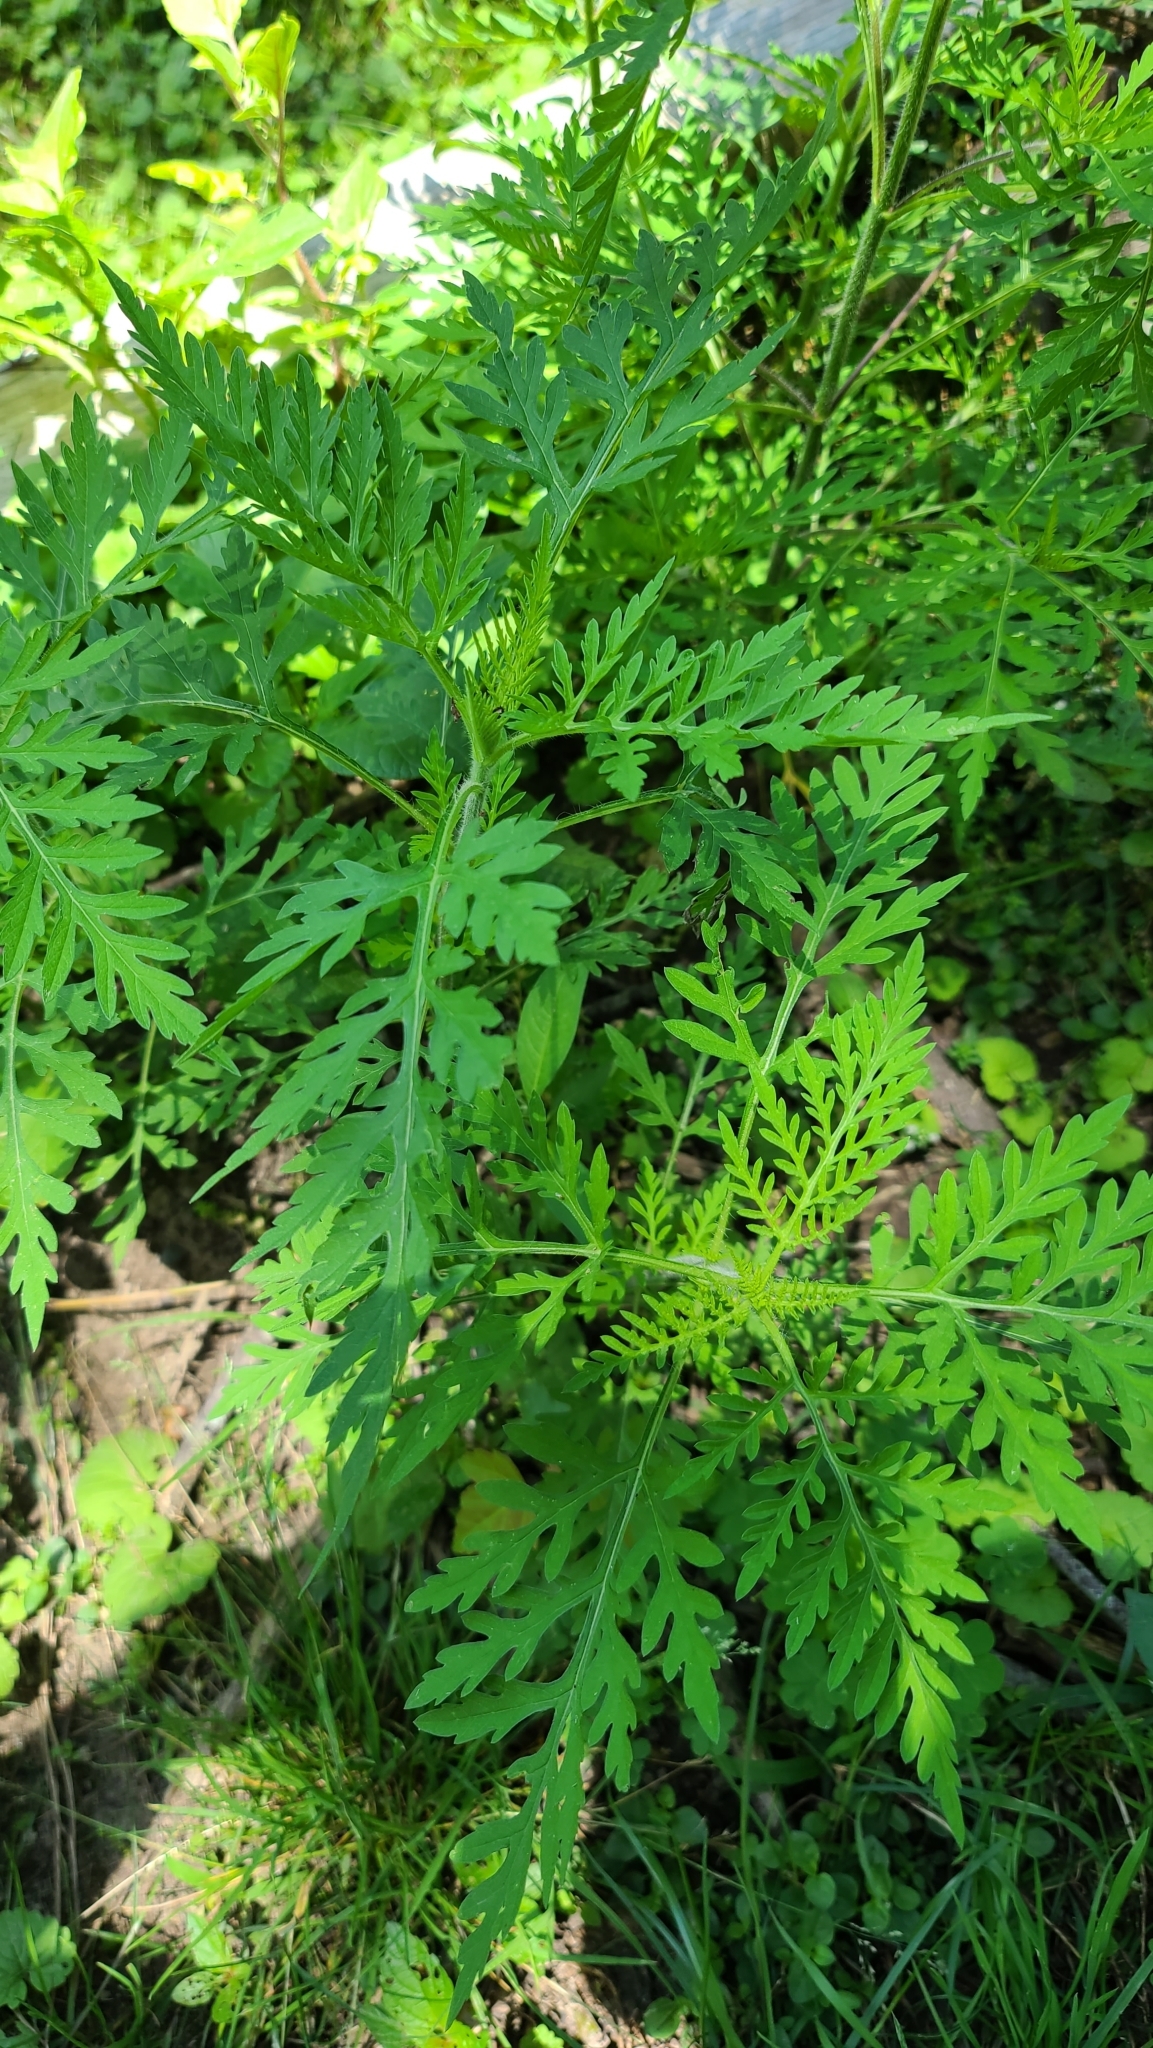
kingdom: Plantae
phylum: Tracheophyta
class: Magnoliopsida
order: Asterales
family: Asteraceae
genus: Ambrosia
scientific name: Ambrosia artemisiifolia
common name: Annual ragweed
